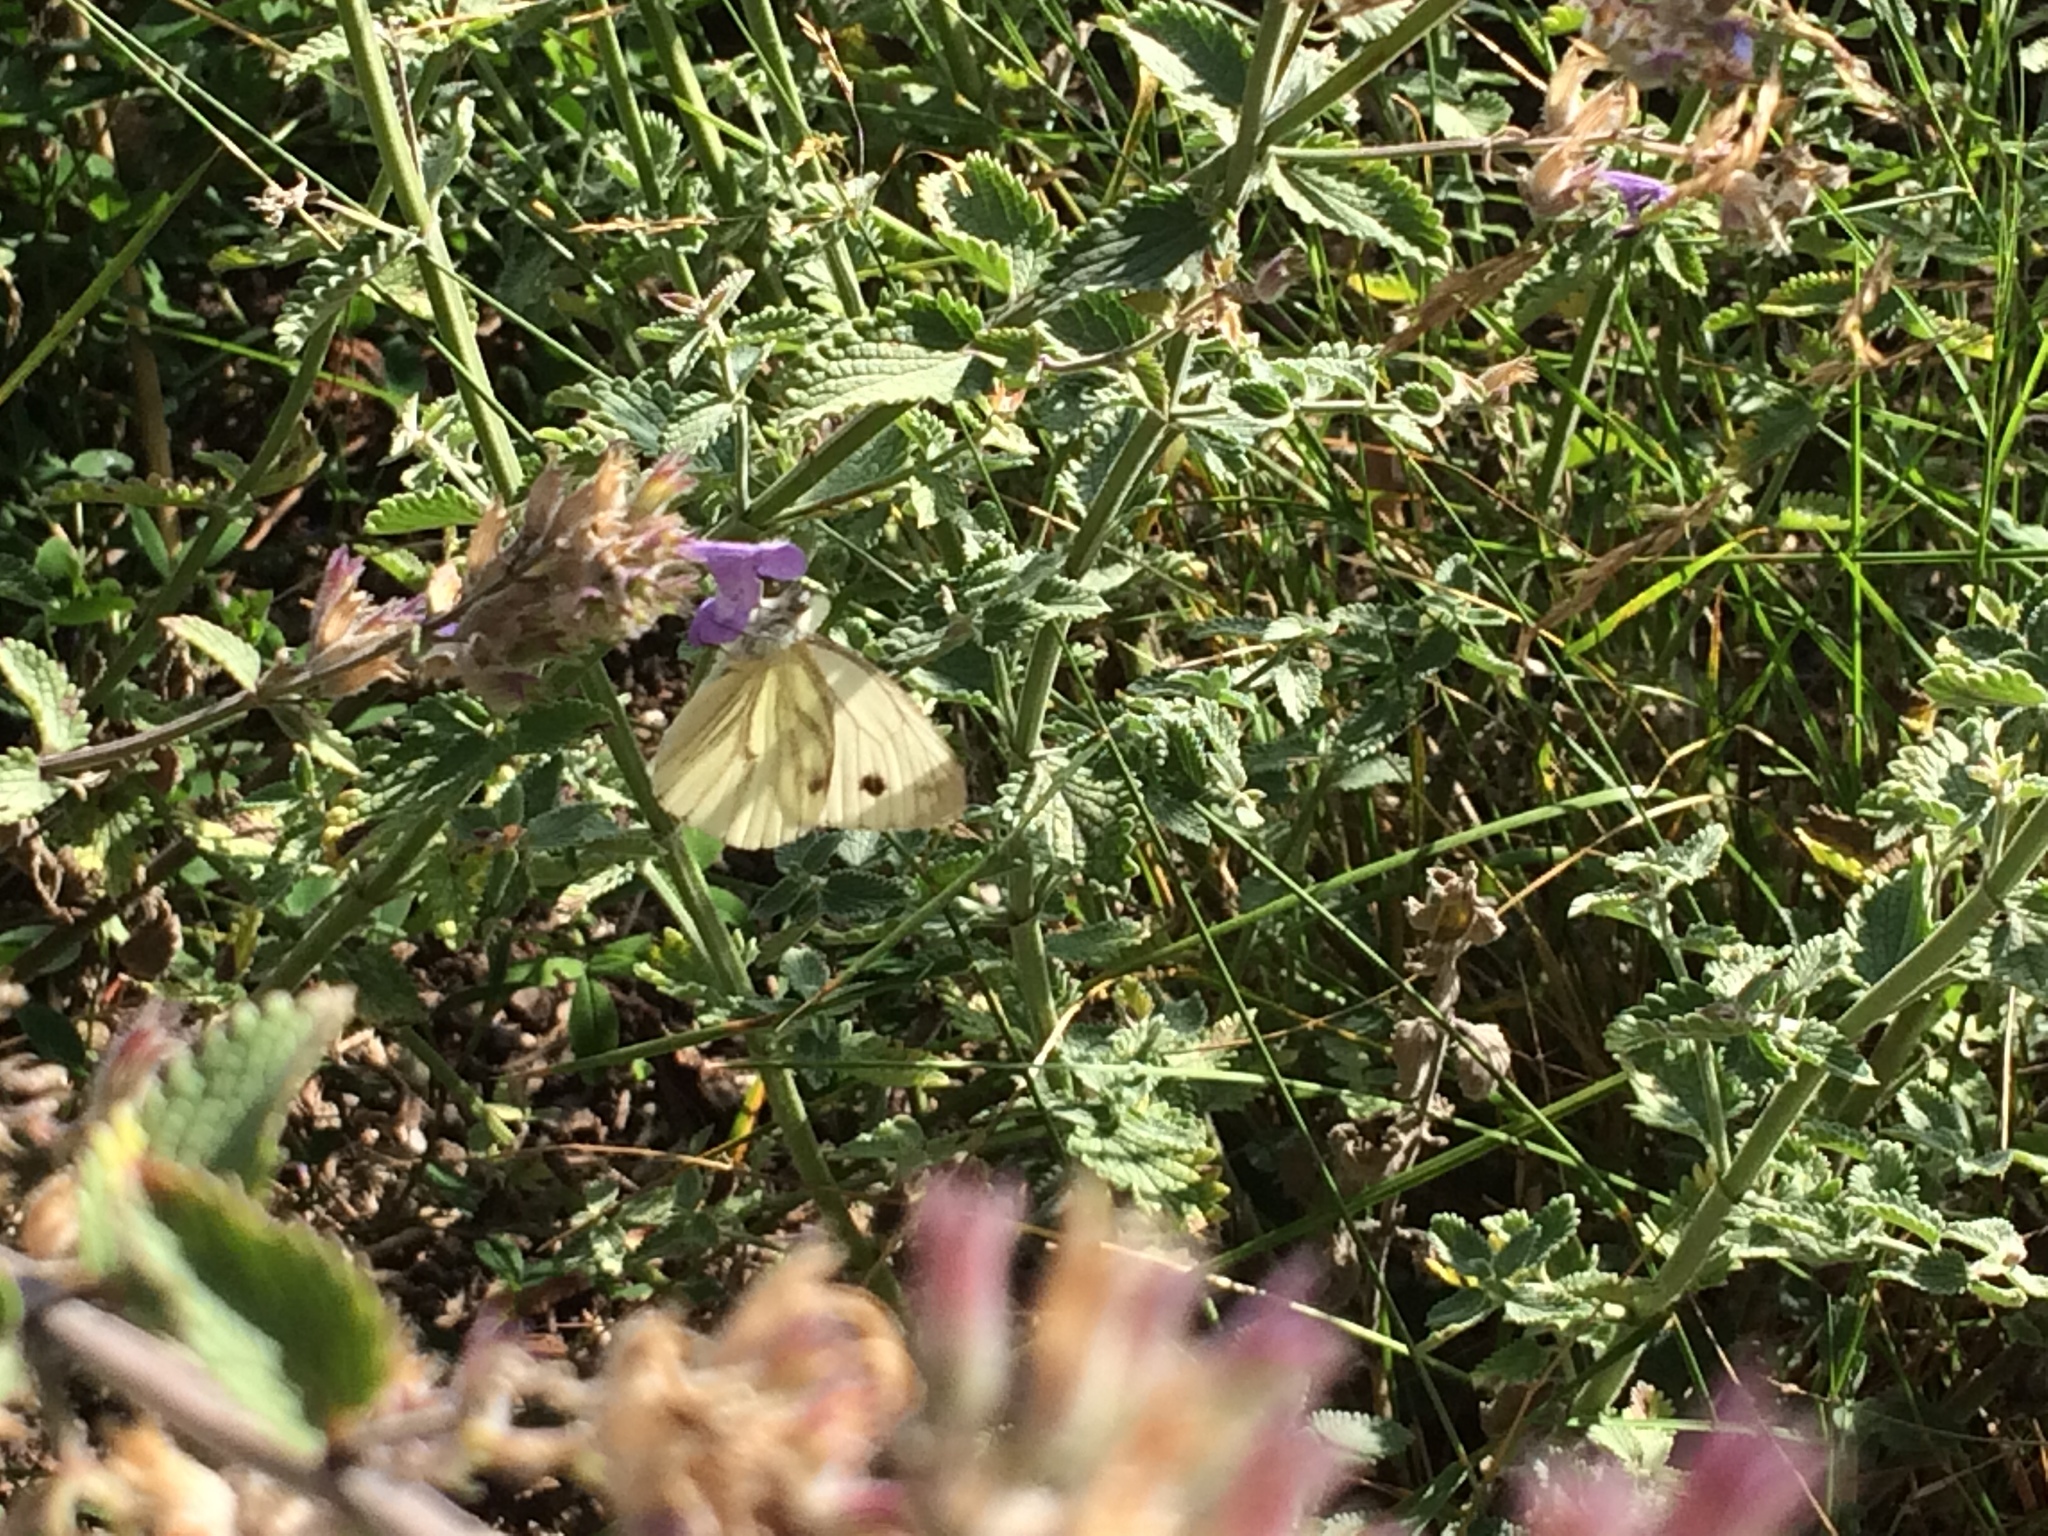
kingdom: Animalia
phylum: Arthropoda
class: Insecta
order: Lepidoptera
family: Pieridae
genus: Pieris
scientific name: Pieris napi
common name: Green-veined white
